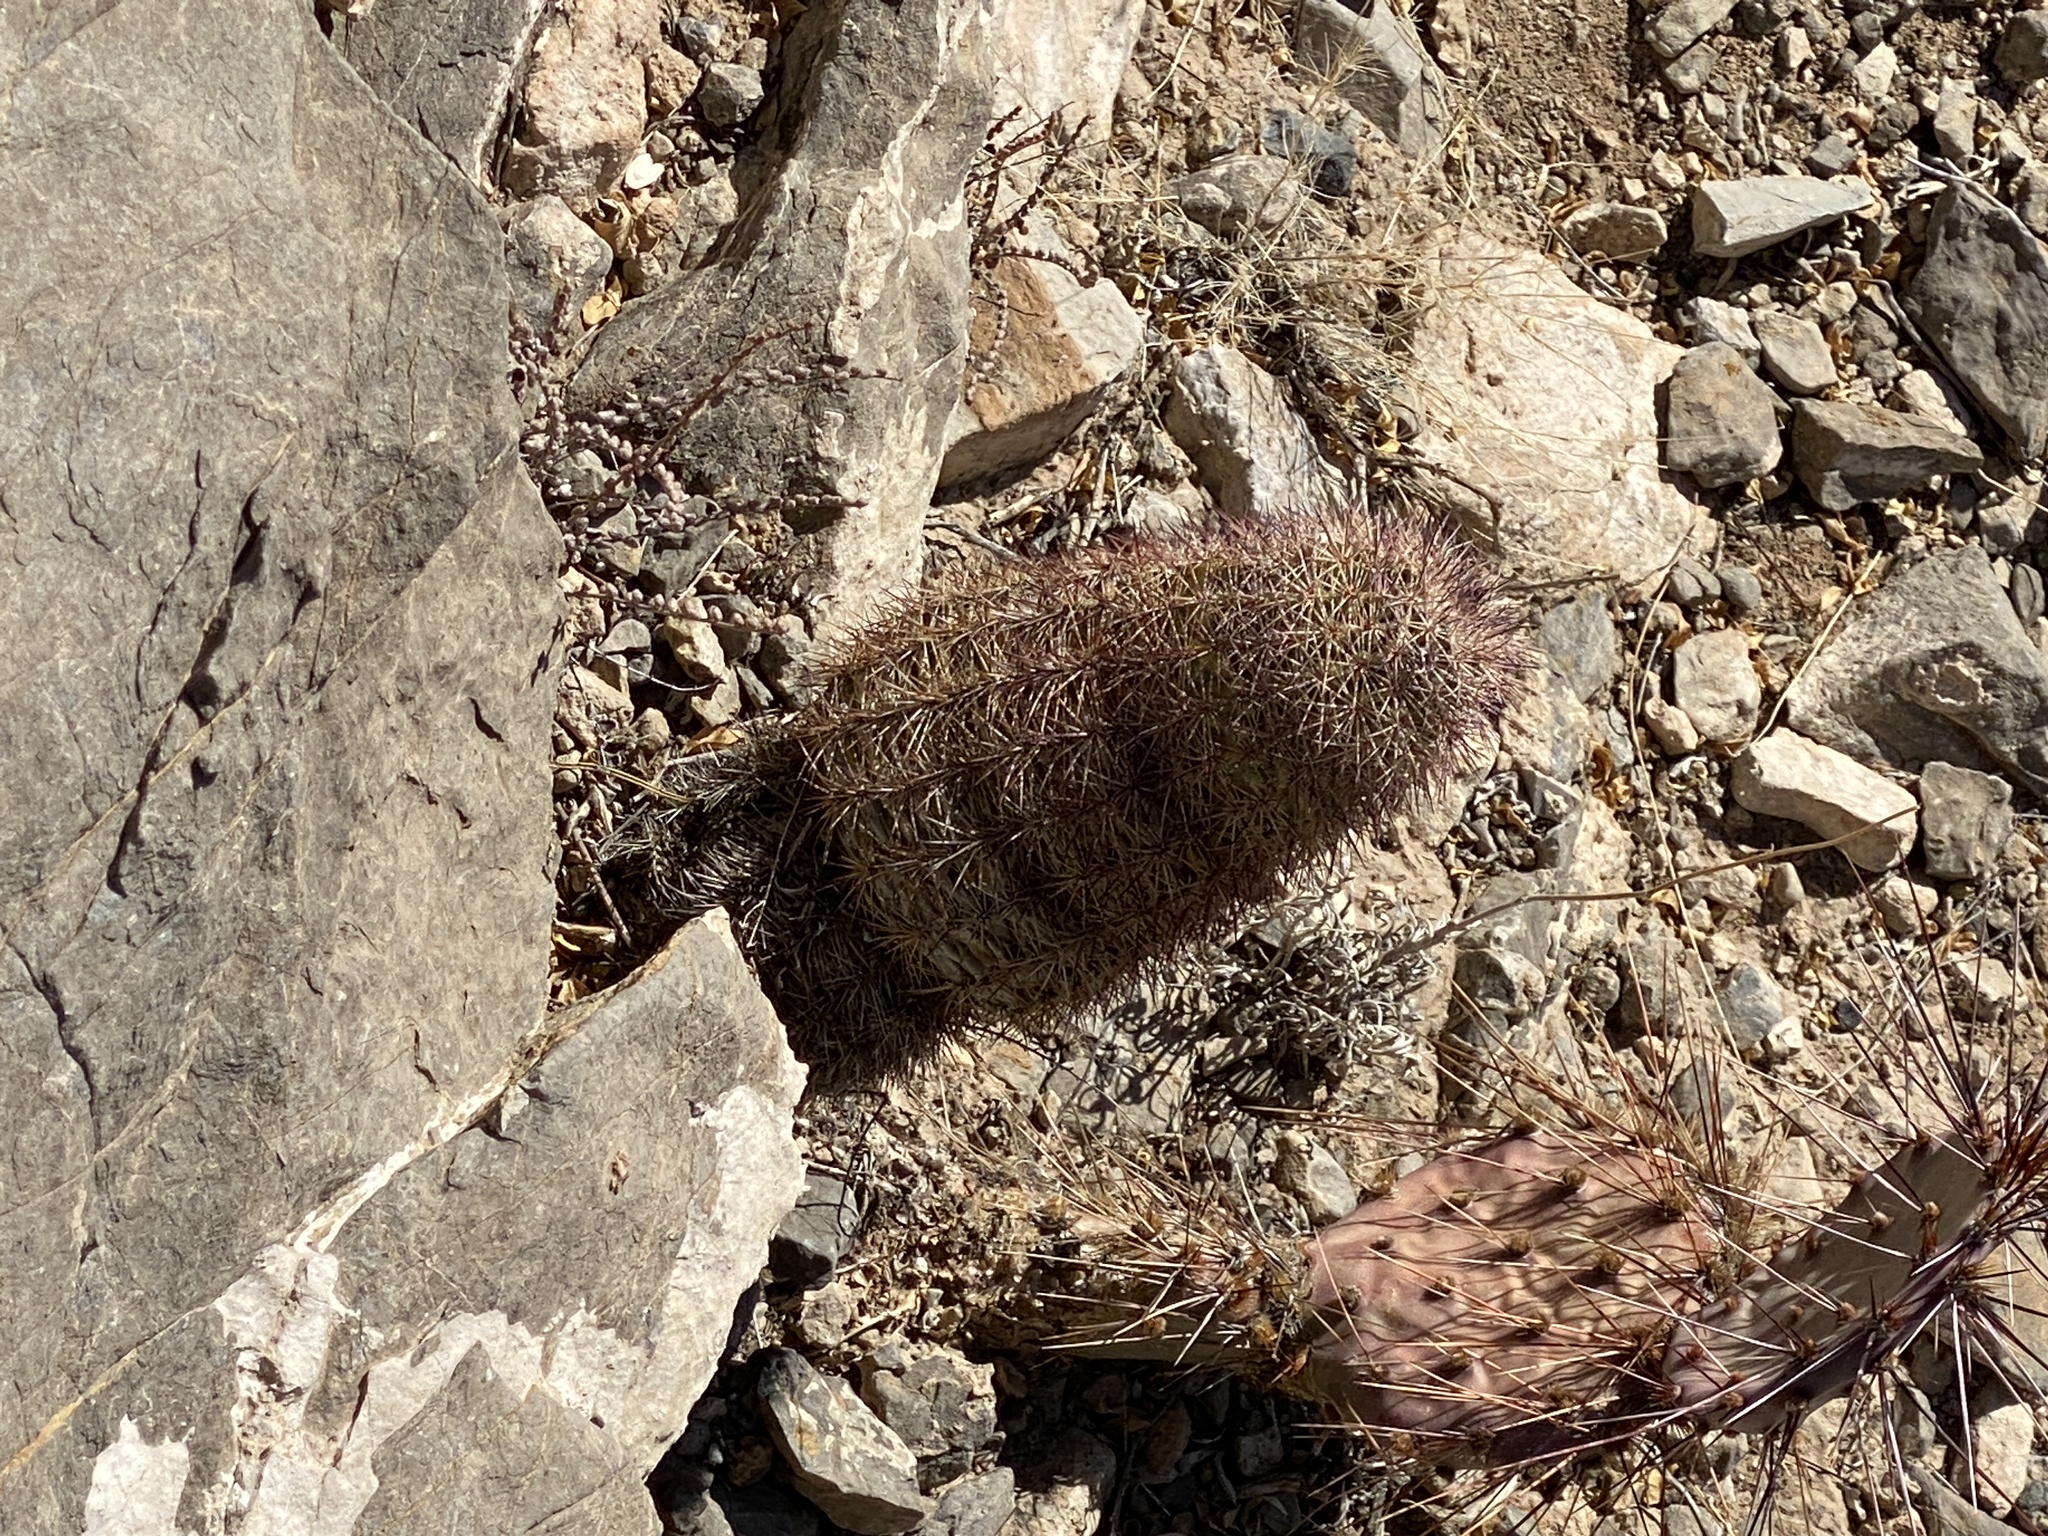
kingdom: Plantae
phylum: Tracheophyta
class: Magnoliopsida
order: Caryophyllales
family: Cactaceae
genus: Echinocereus
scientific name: Echinocereus dasyacanthus
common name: Spiny hedgehog cactus
